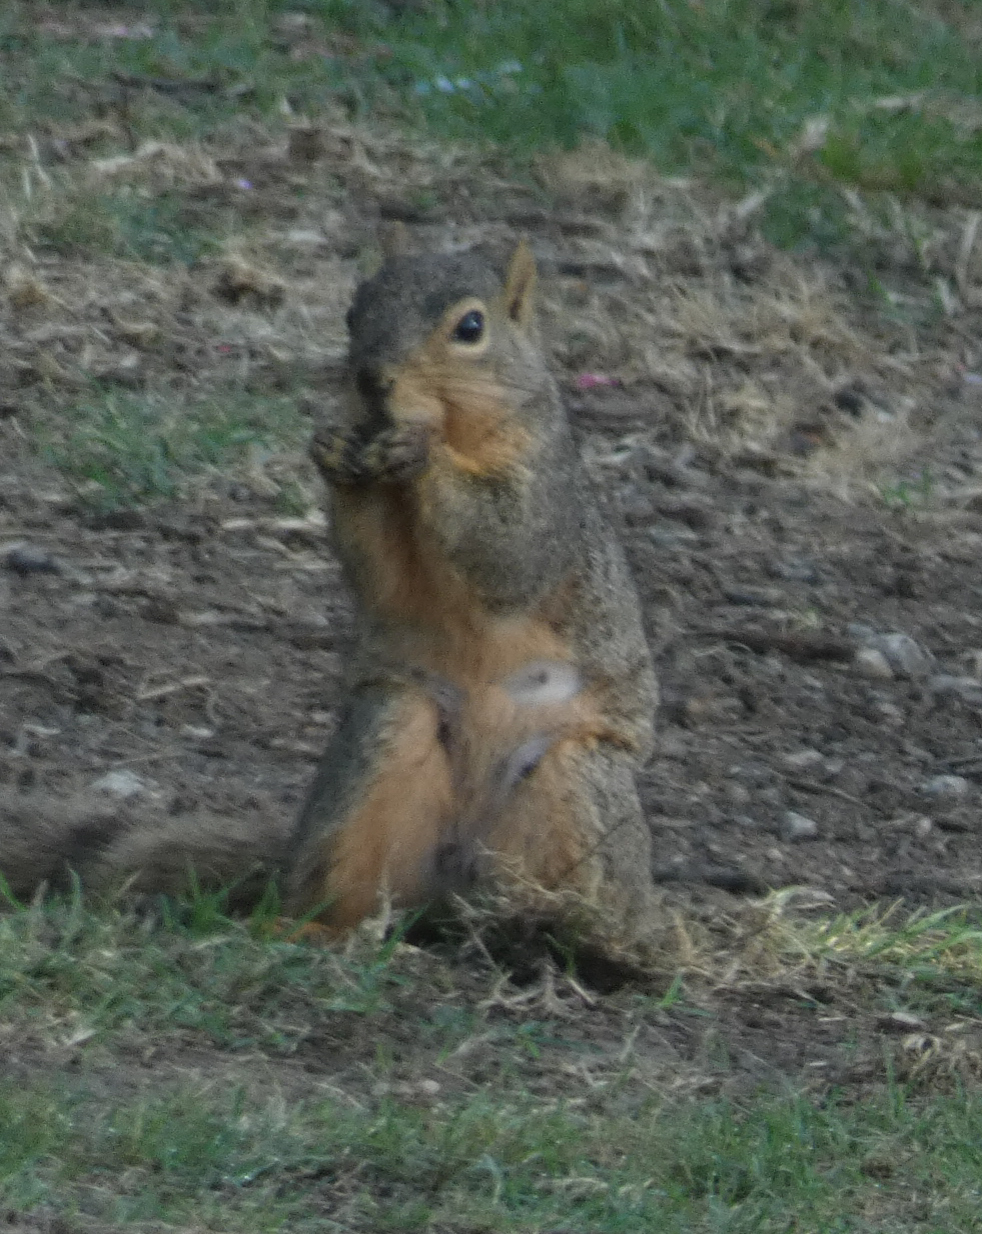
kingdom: Animalia
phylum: Chordata
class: Mammalia
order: Rodentia
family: Sciuridae
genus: Sciurus
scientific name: Sciurus niger
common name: Fox squirrel
